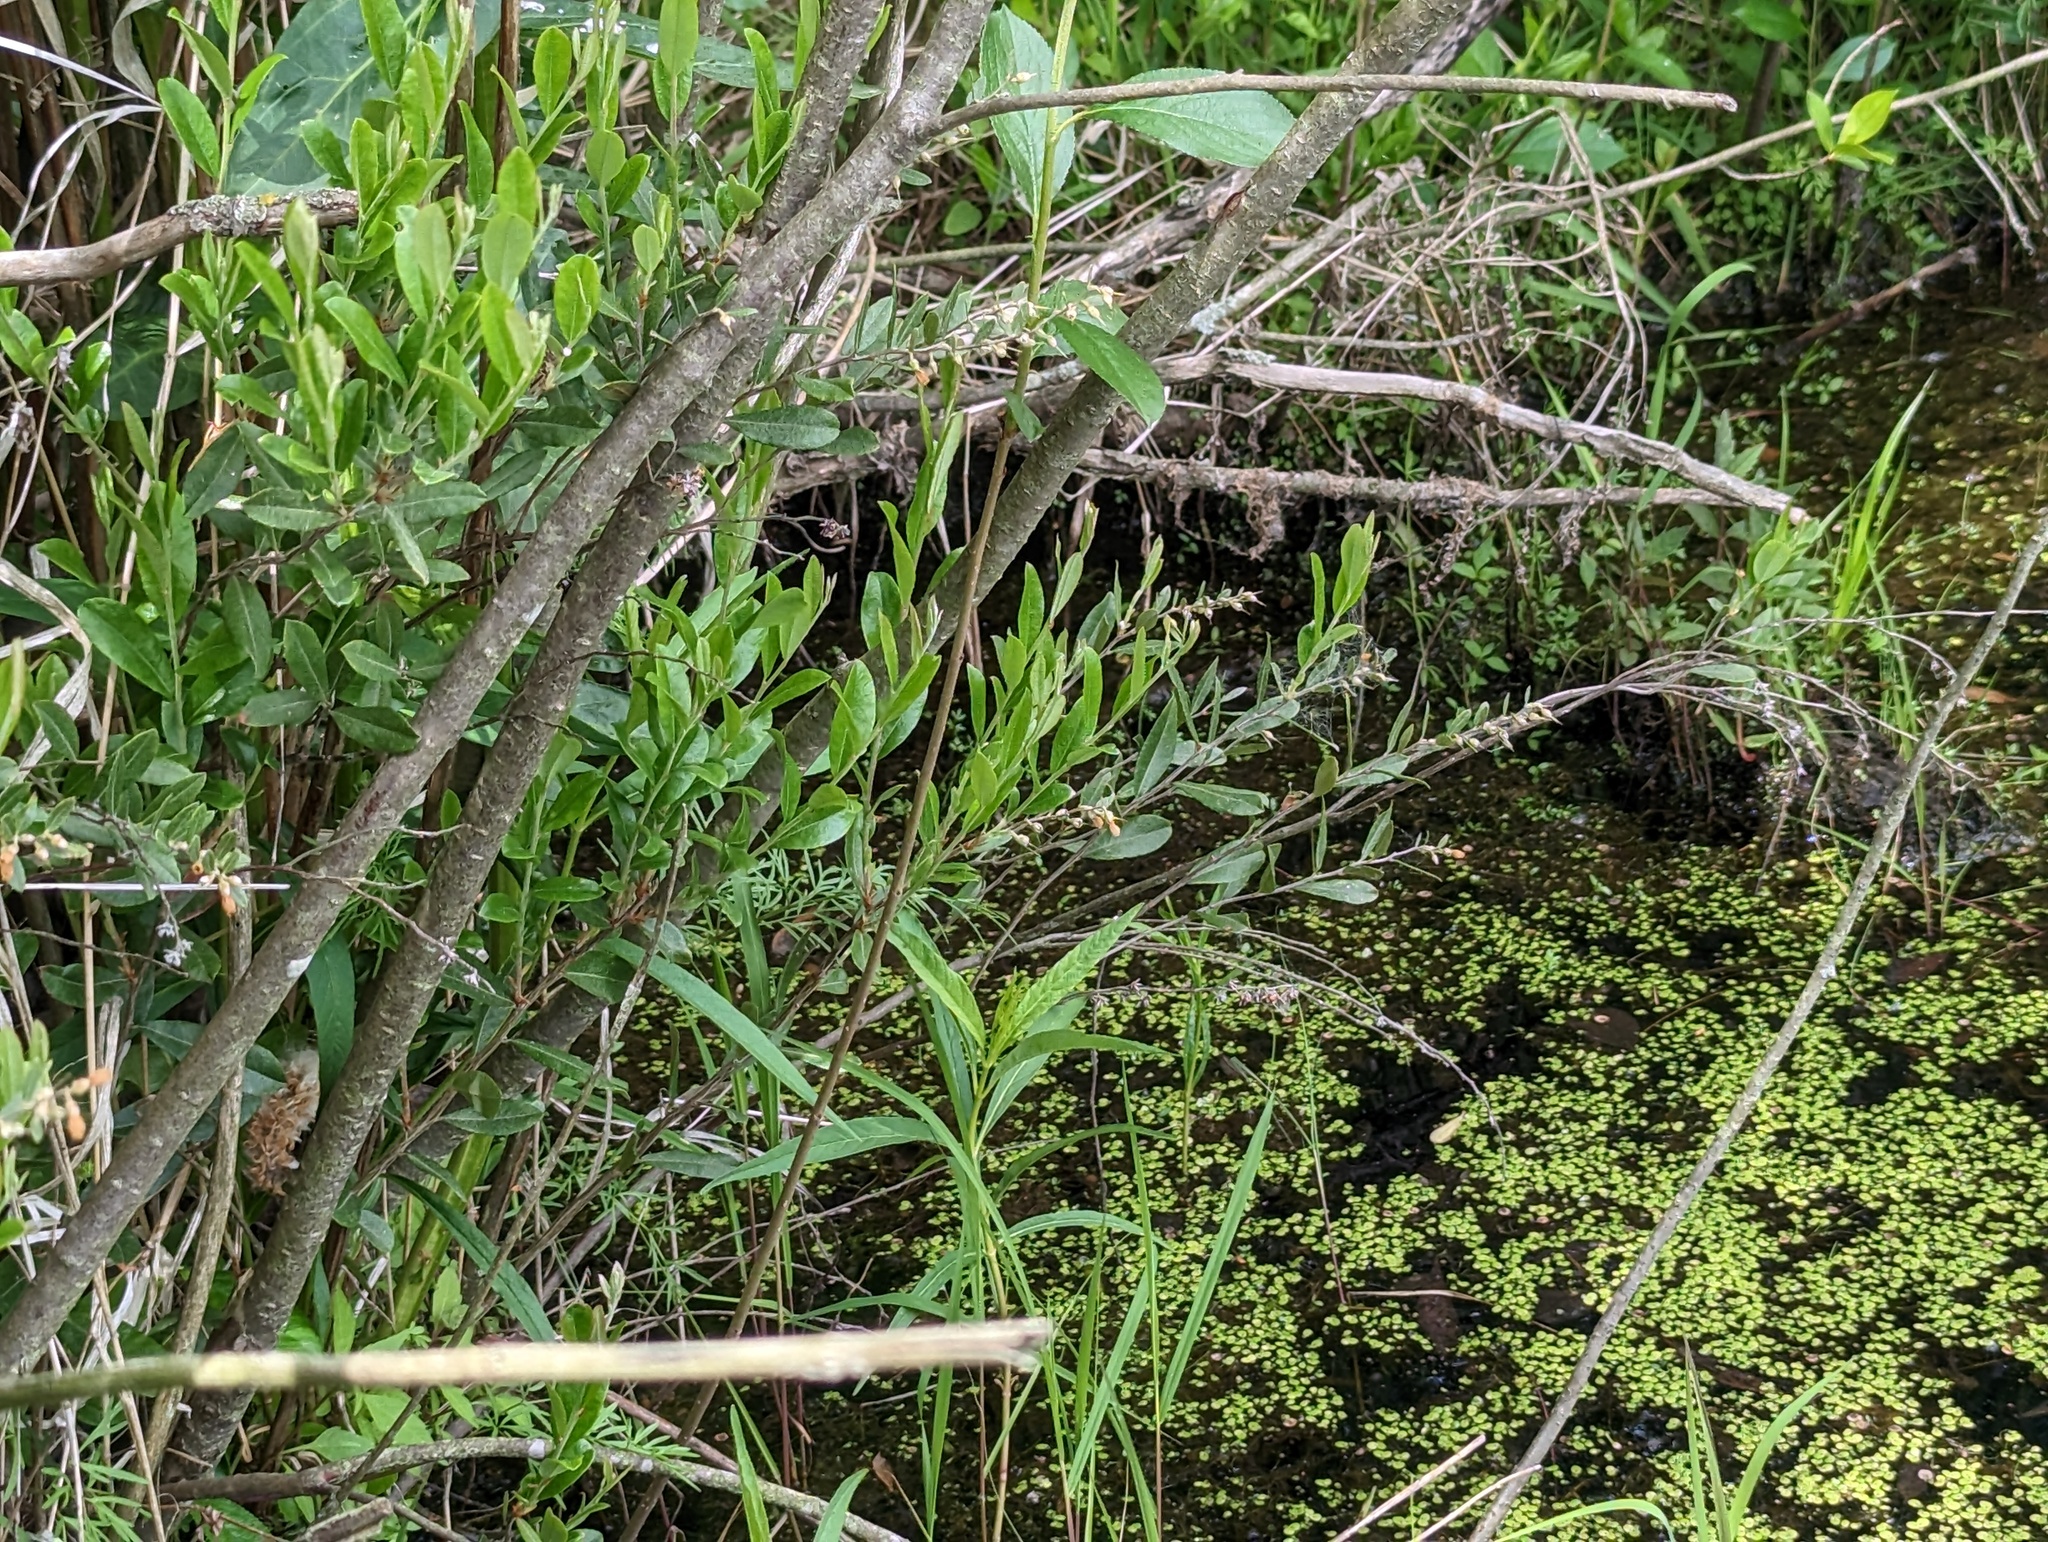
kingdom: Plantae
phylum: Tracheophyta
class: Magnoliopsida
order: Ericales
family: Ericaceae
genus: Chamaedaphne
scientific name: Chamaedaphne calyculata
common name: Leatherleaf
